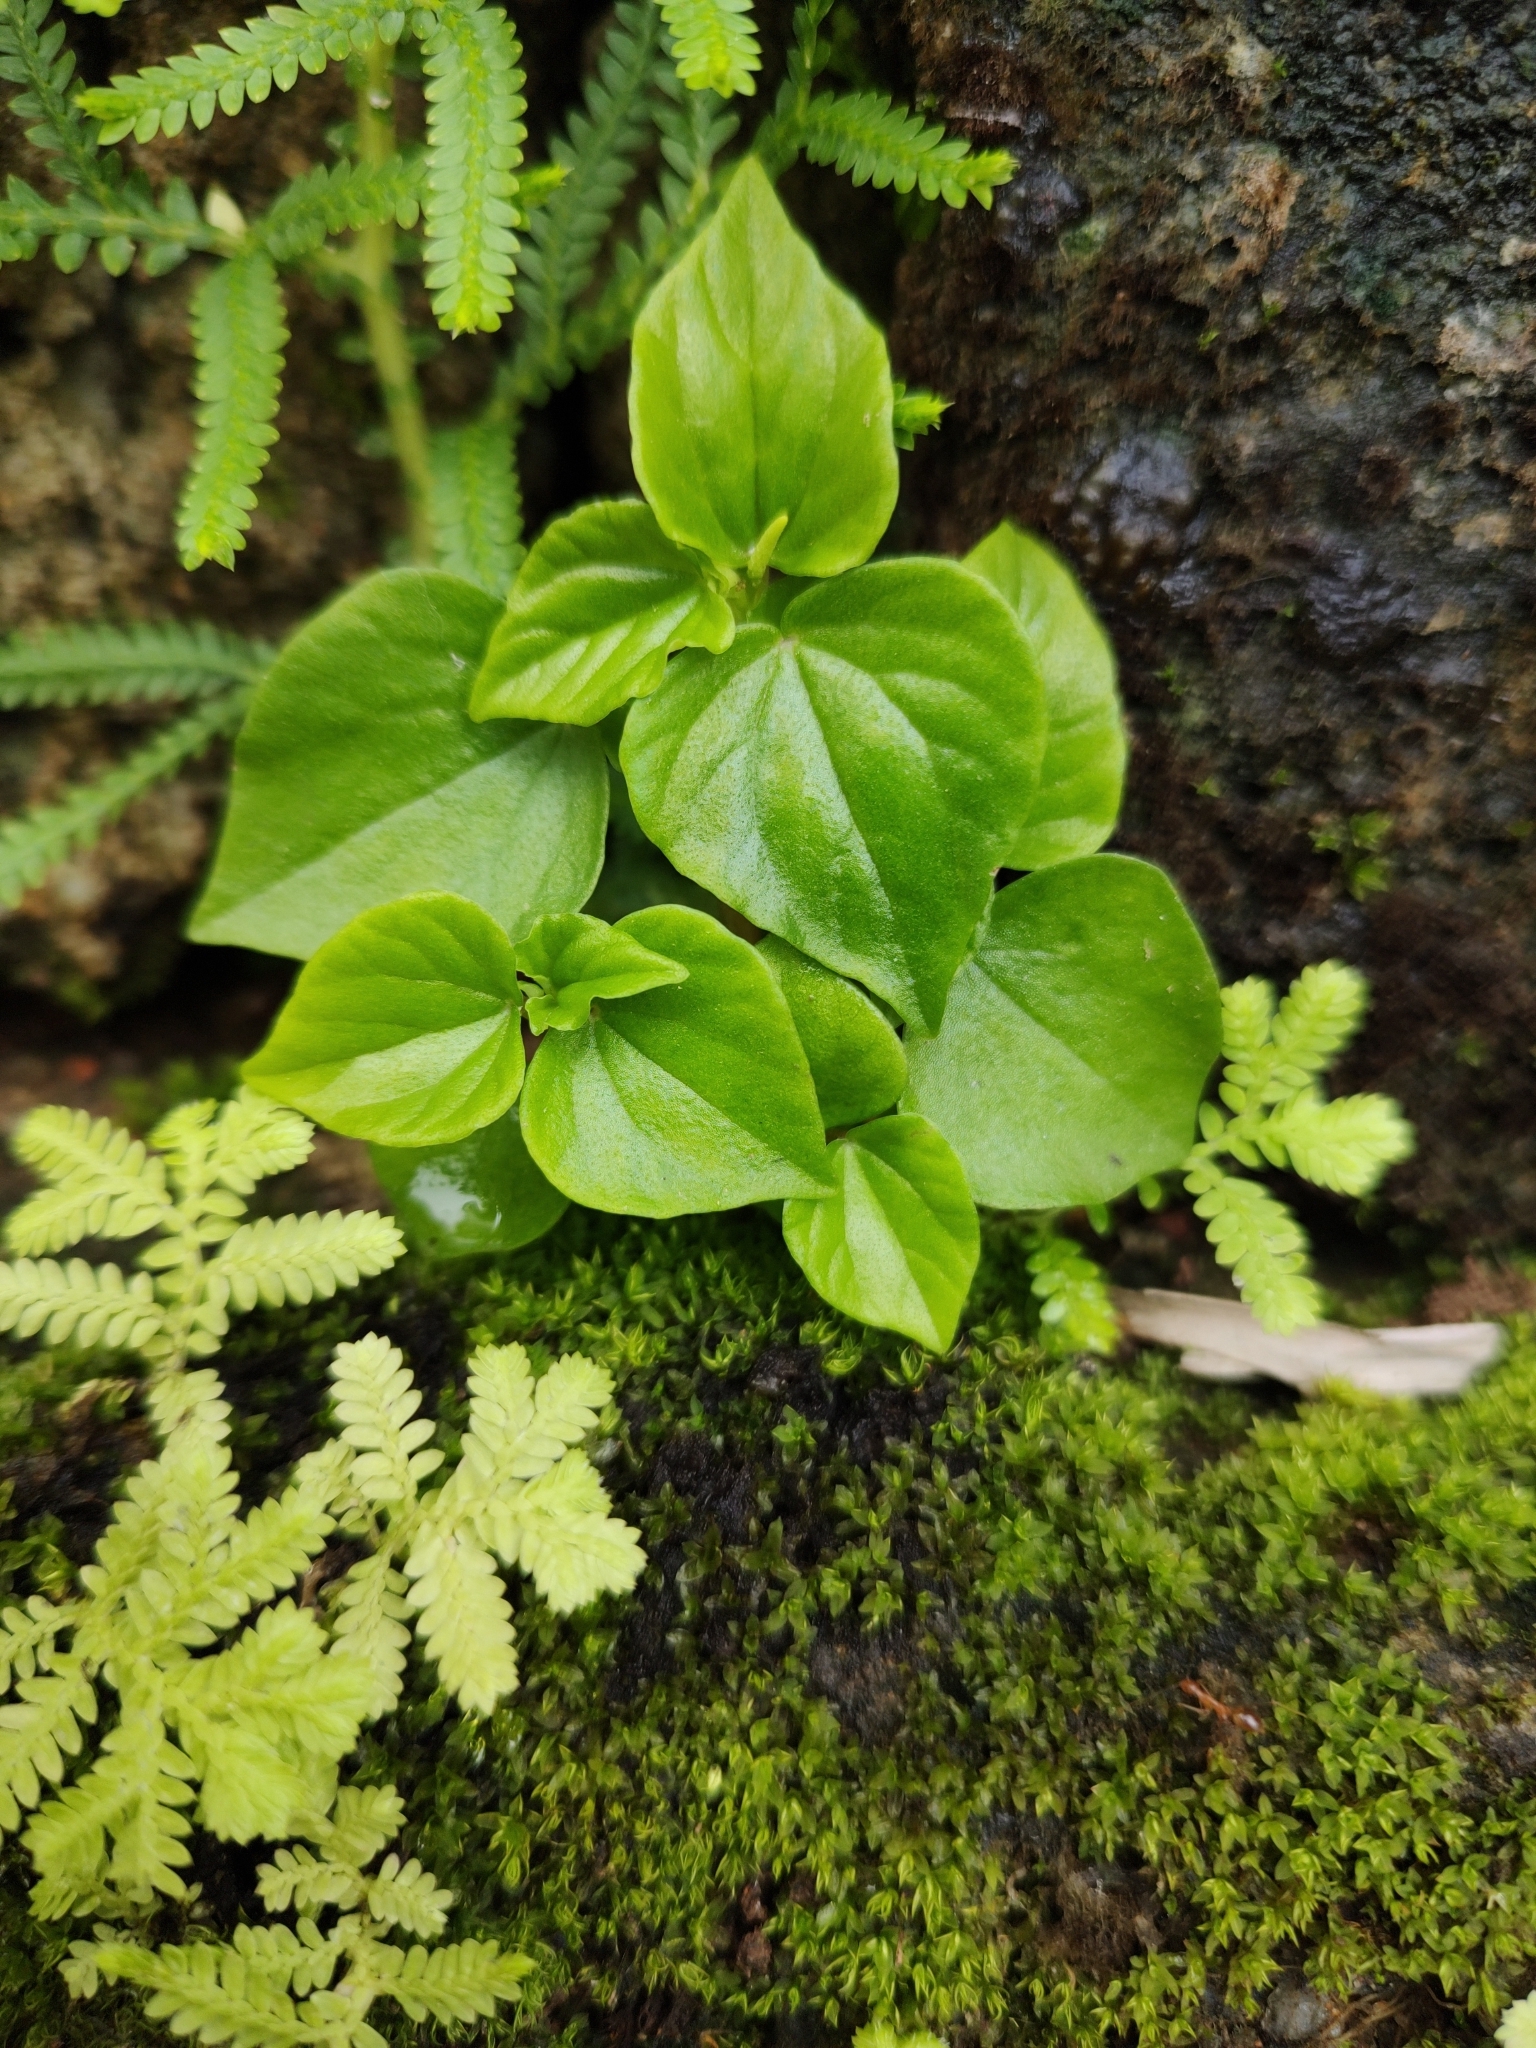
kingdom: Plantae
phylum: Tracheophyta
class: Magnoliopsida
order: Piperales
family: Piperaceae
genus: Peperomia
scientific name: Peperomia pellucida
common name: Man to man
